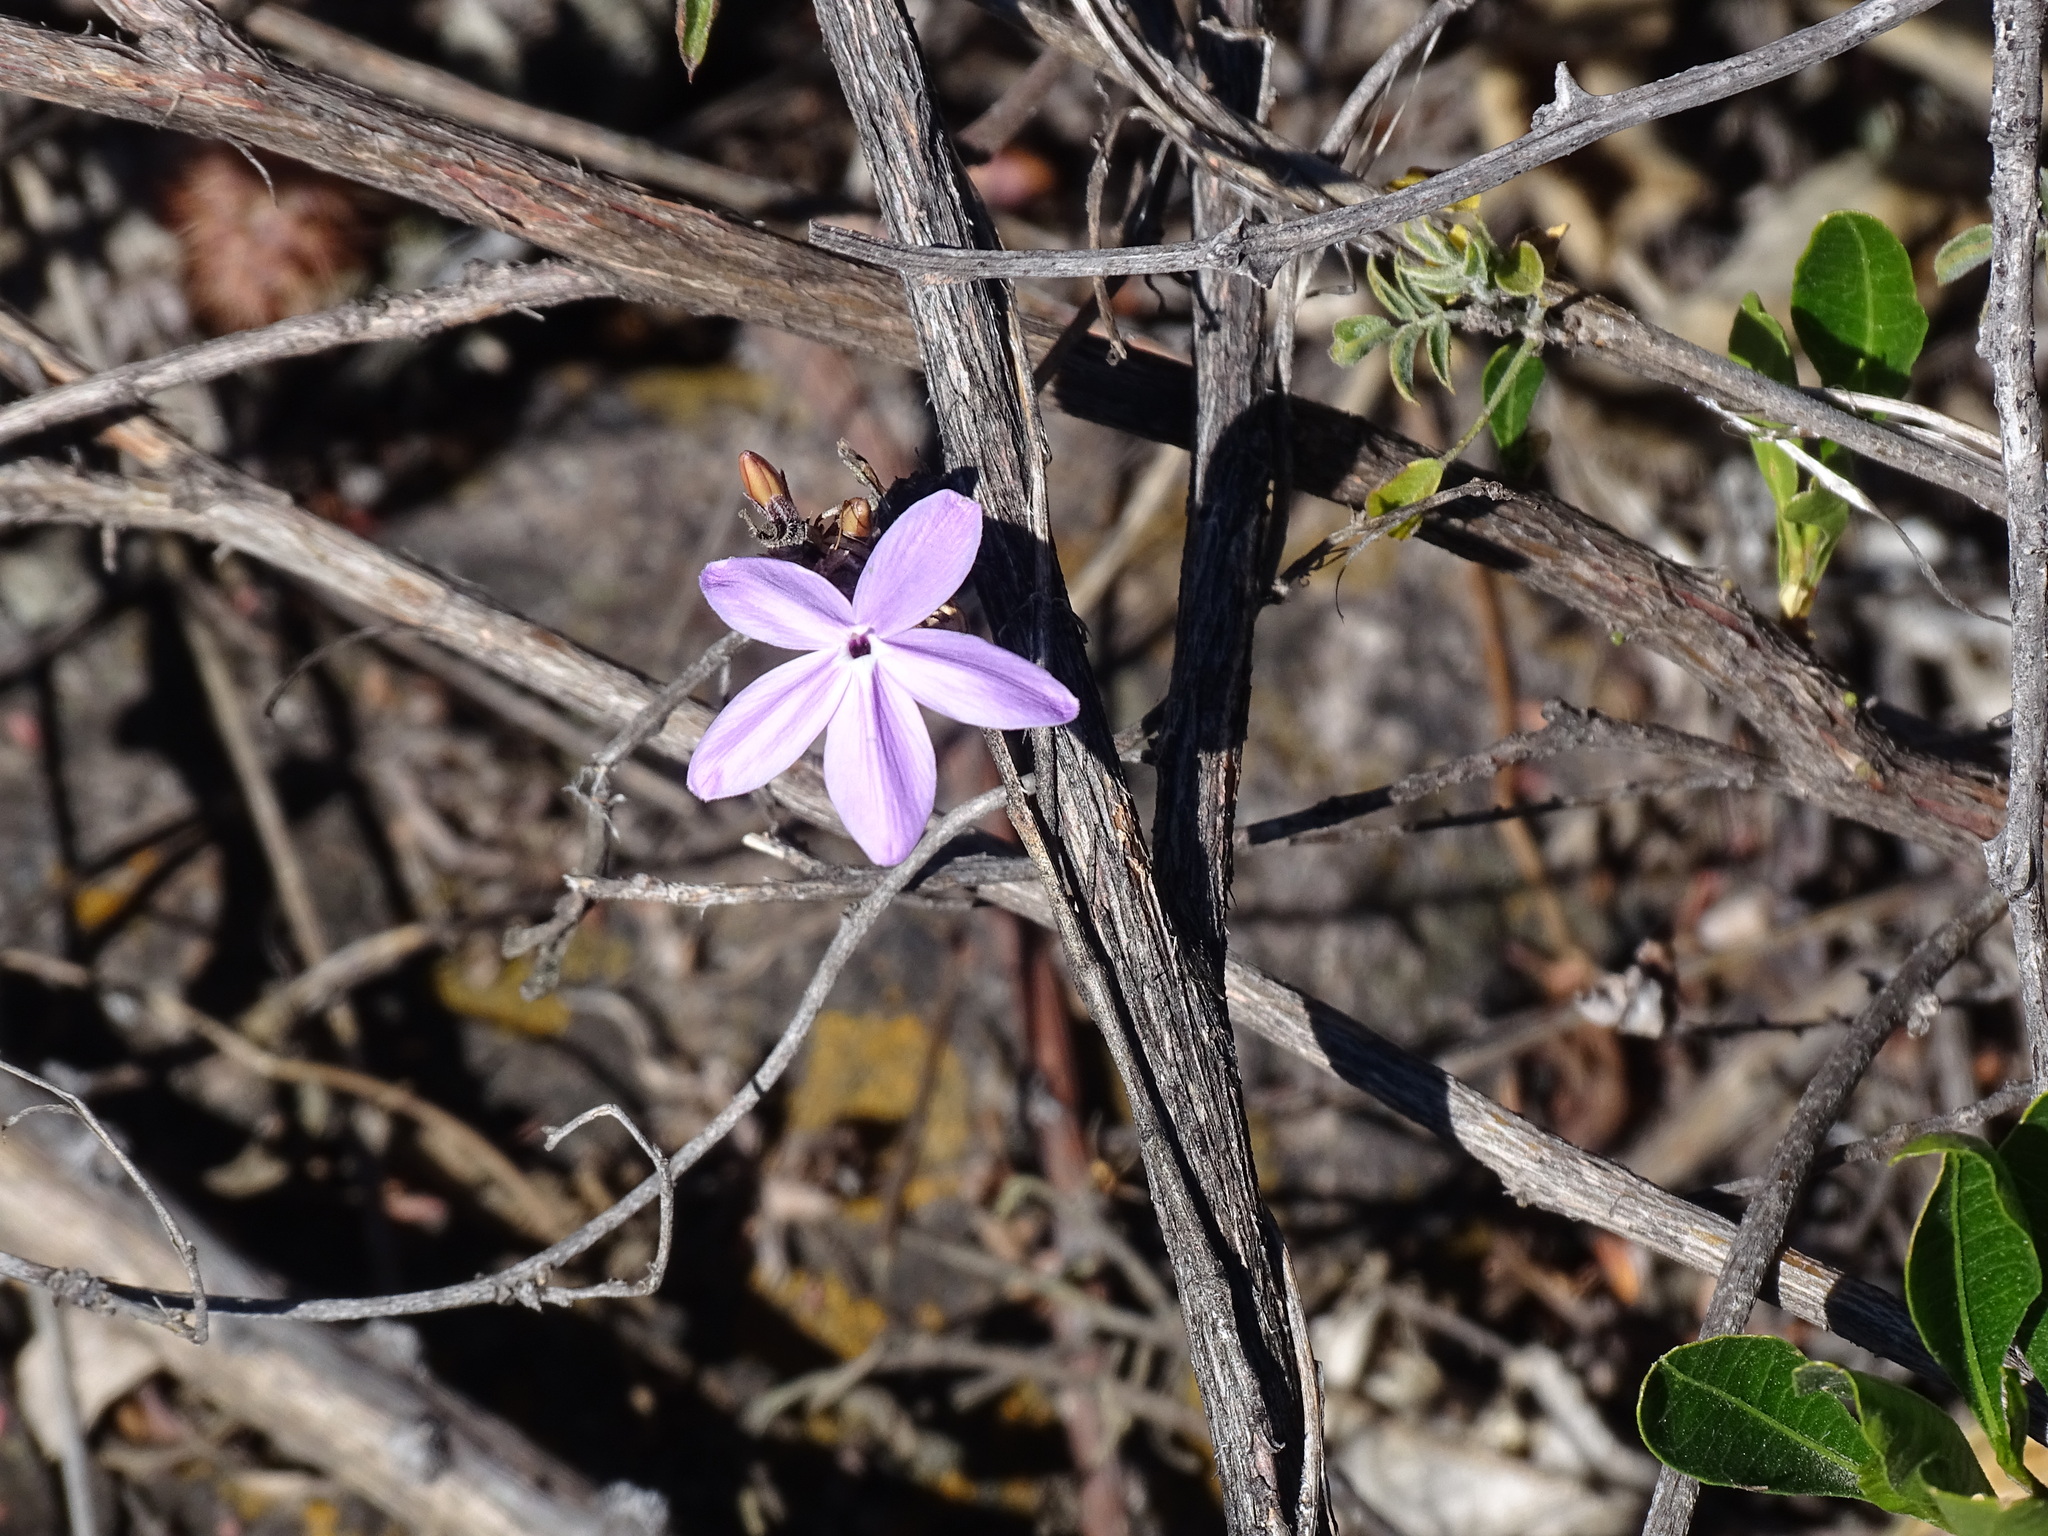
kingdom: Plantae
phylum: Tracheophyta
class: Magnoliopsida
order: Lamiales
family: Acanthaceae
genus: Pseuderanthemum
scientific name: Pseuderanthemum praecox
